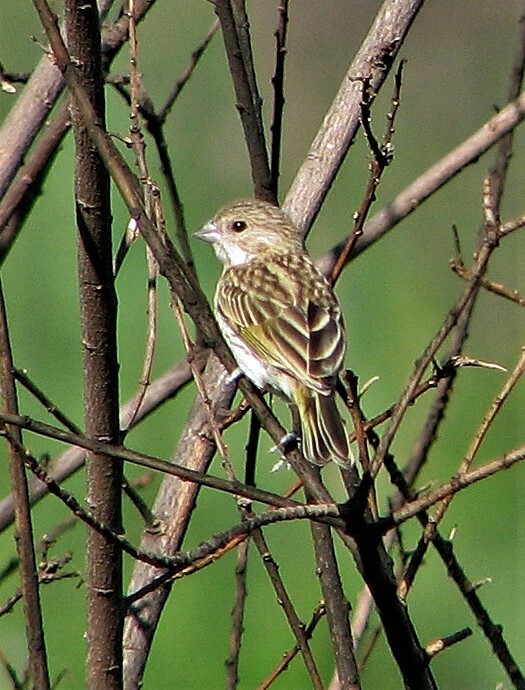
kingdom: Animalia
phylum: Chordata
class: Aves
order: Passeriformes
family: Thraupidae
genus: Sicalis
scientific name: Sicalis flaveola
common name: Saffron finch
